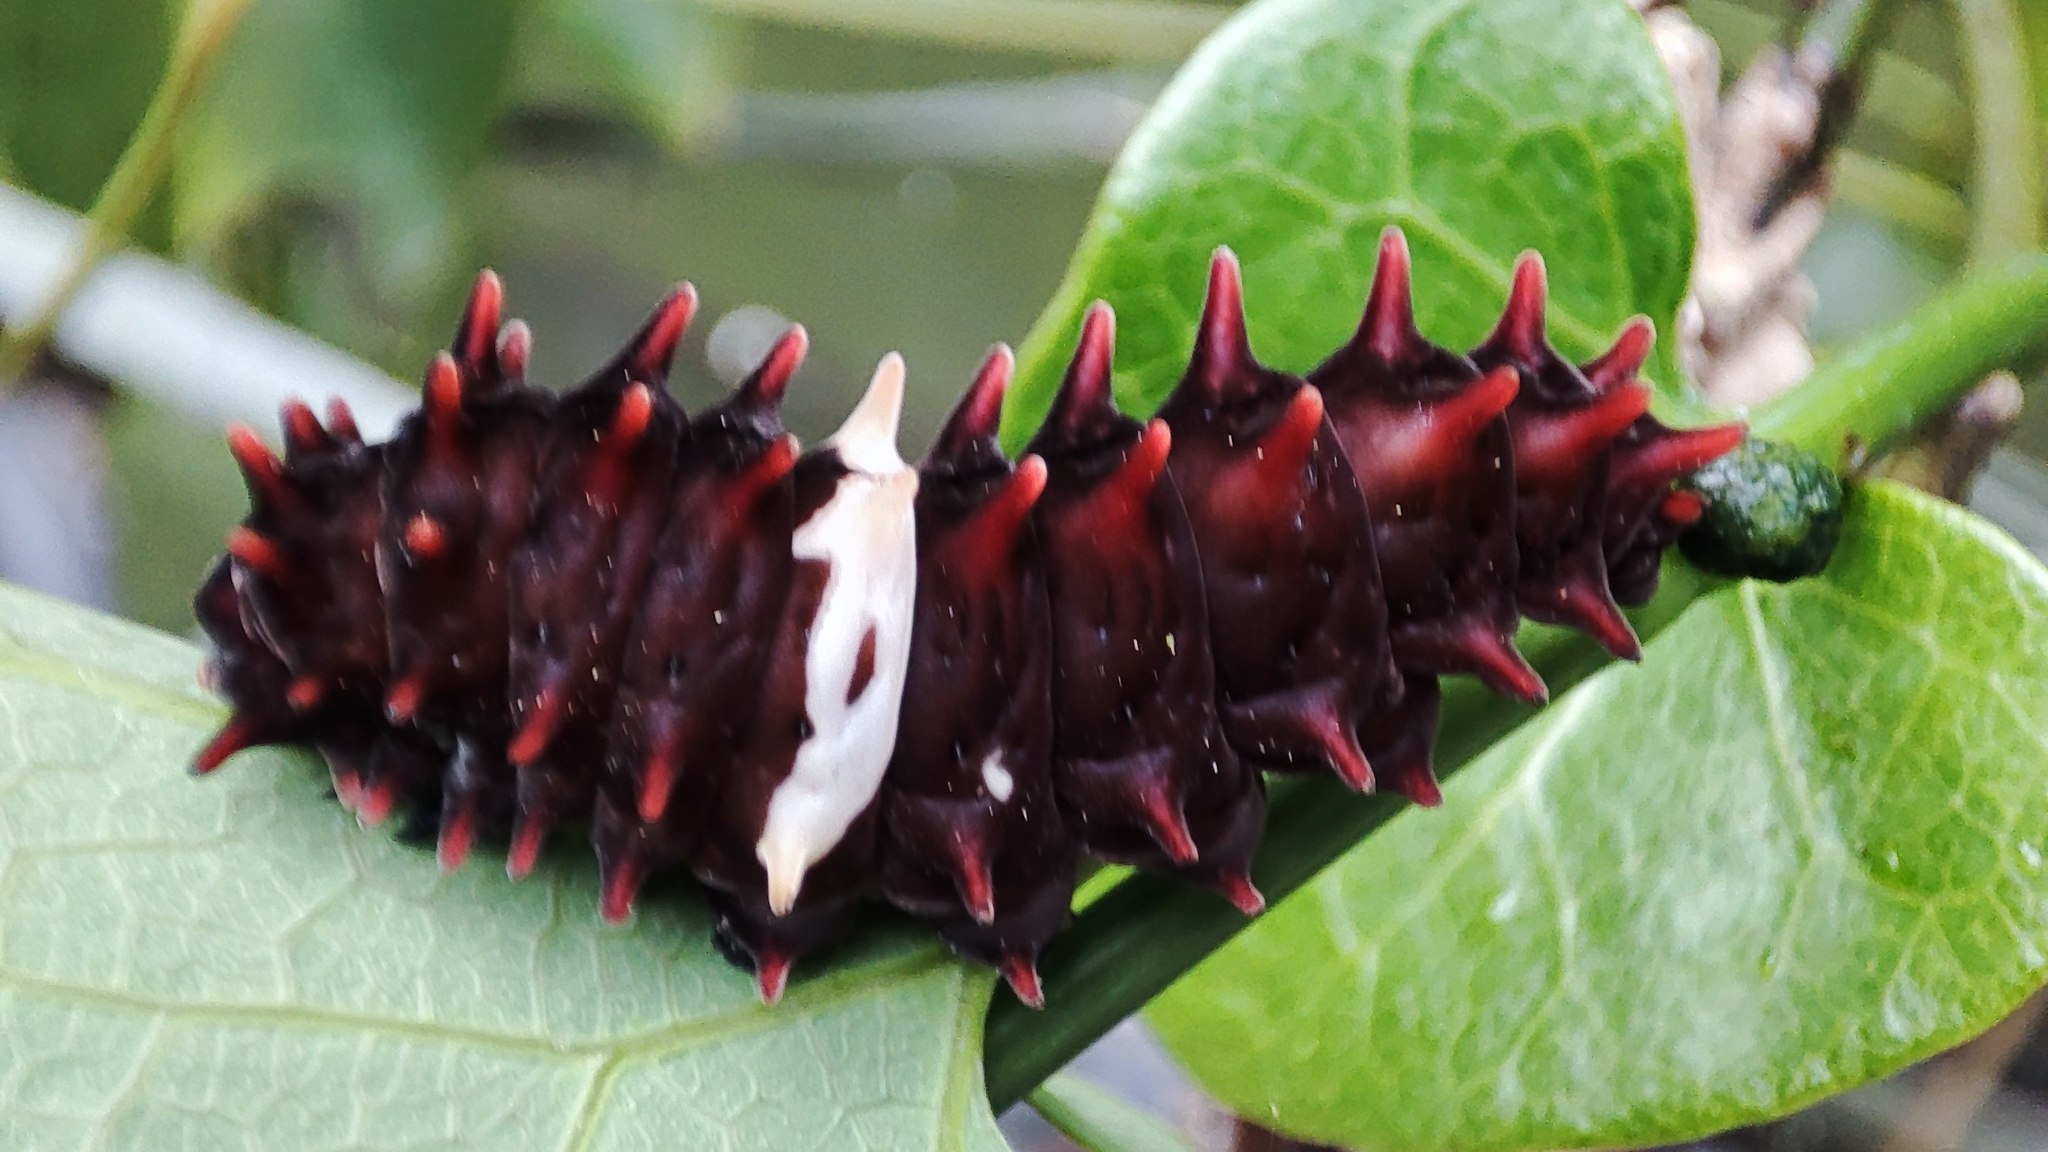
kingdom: Animalia
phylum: Arthropoda
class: Insecta
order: Lepidoptera
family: Papilionidae
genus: Pachliopta
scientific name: Pachliopta aristolochiae
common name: Common rose
